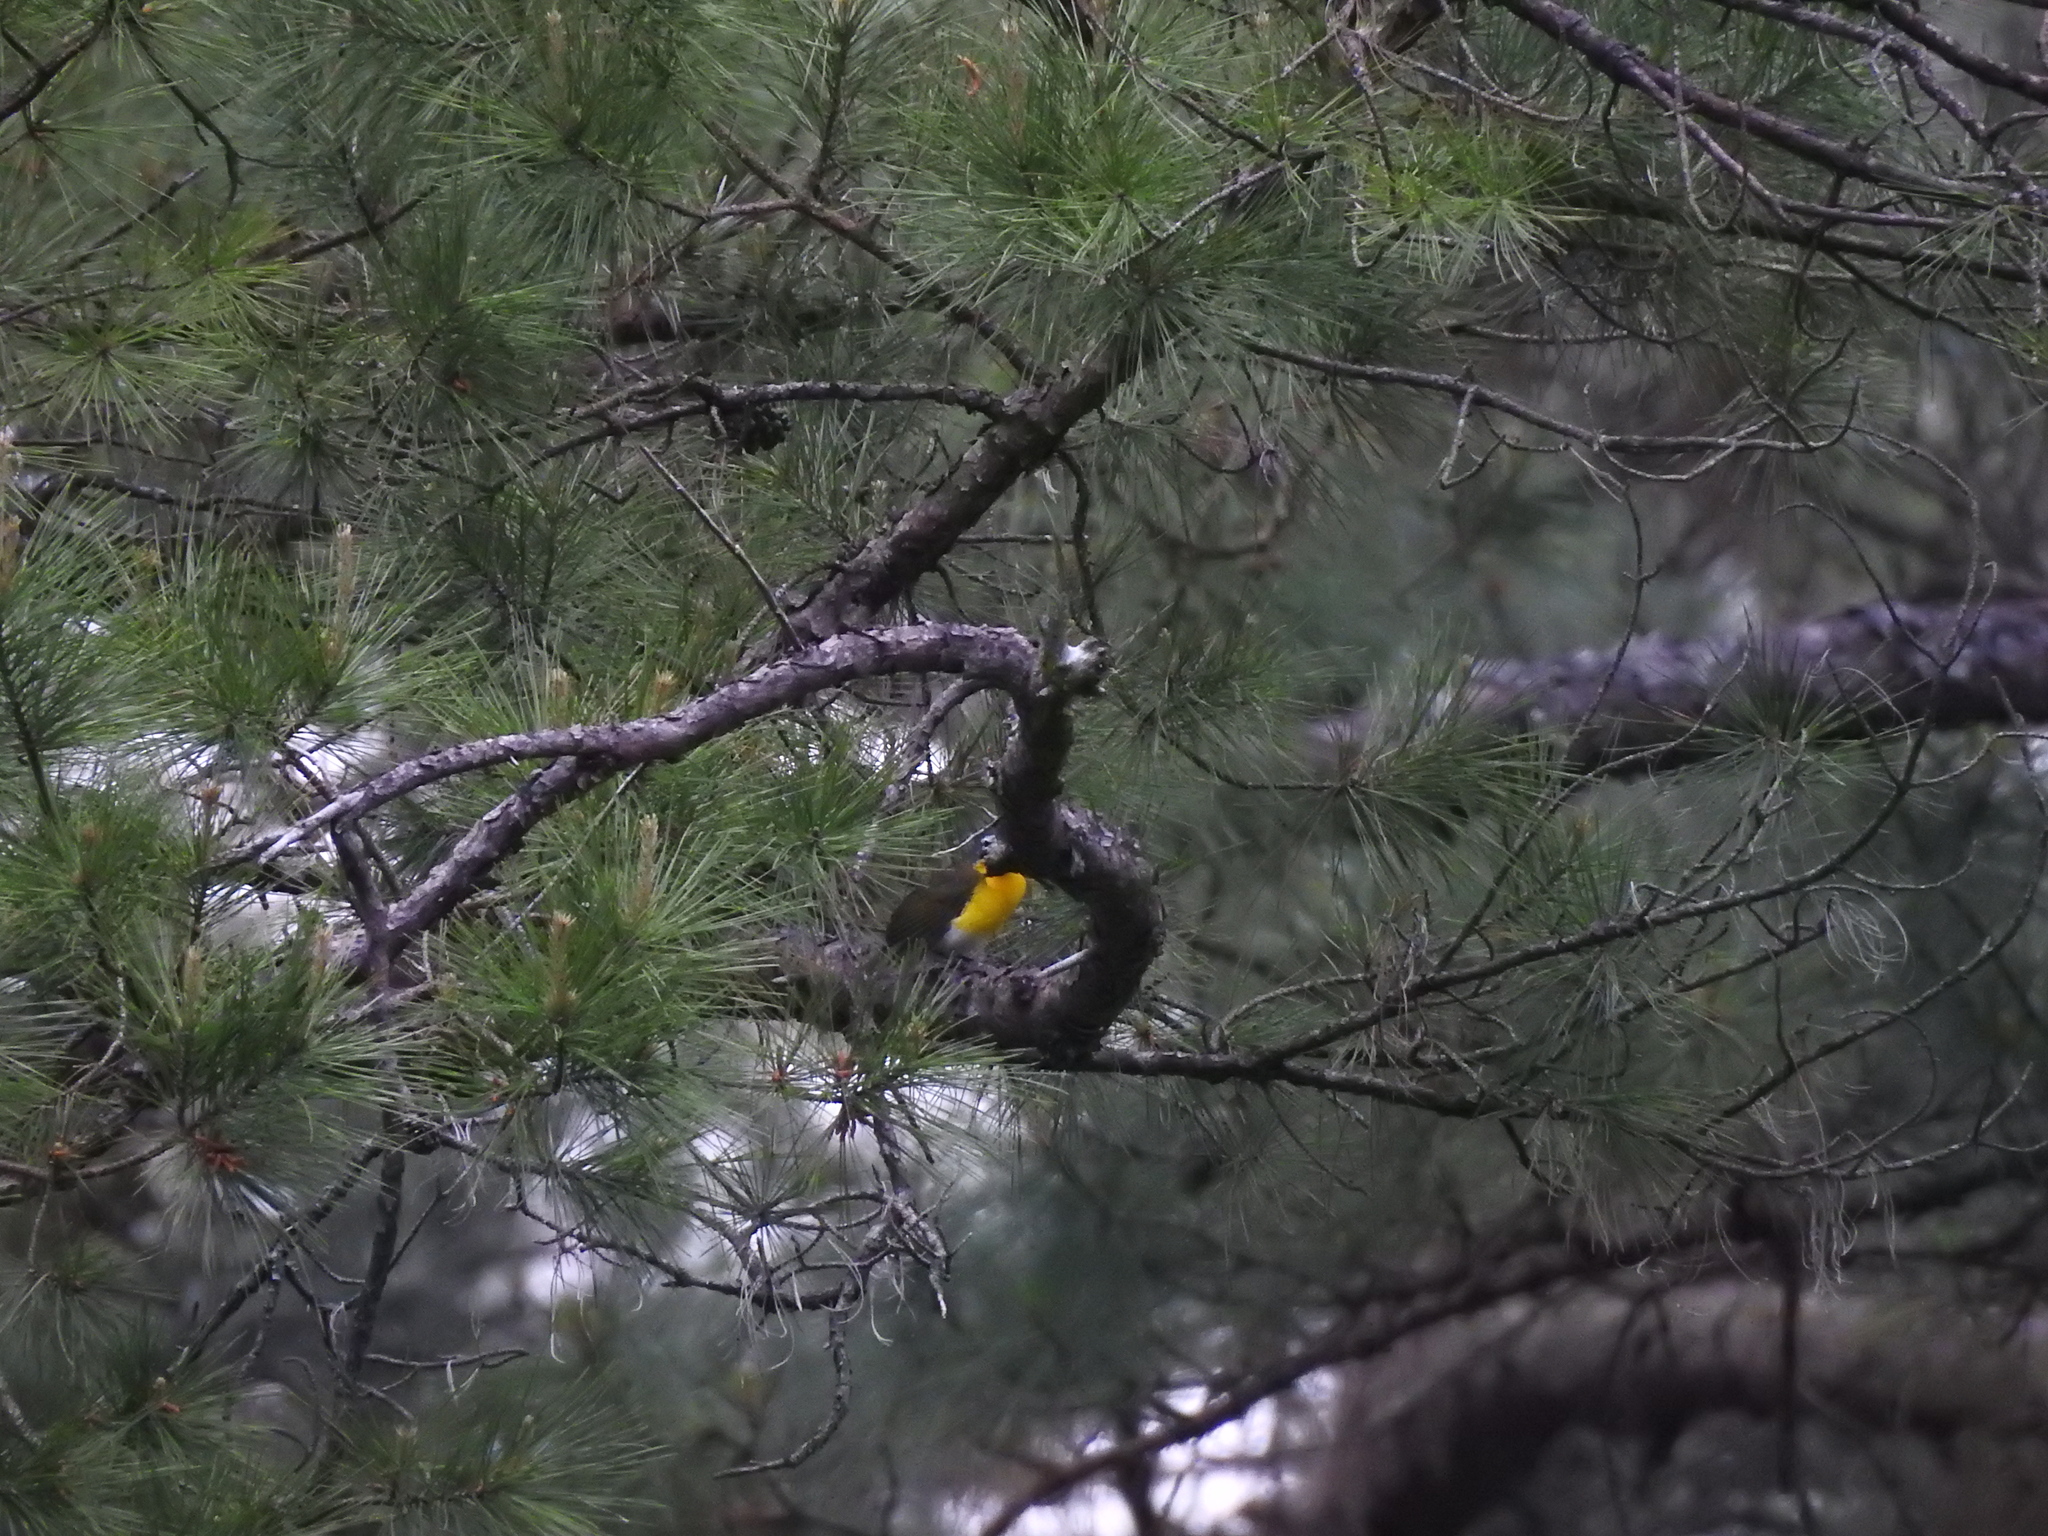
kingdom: Animalia
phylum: Chordata
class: Aves
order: Passeriformes
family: Parulidae
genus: Icteria
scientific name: Icteria virens
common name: Yellow-breasted chat
